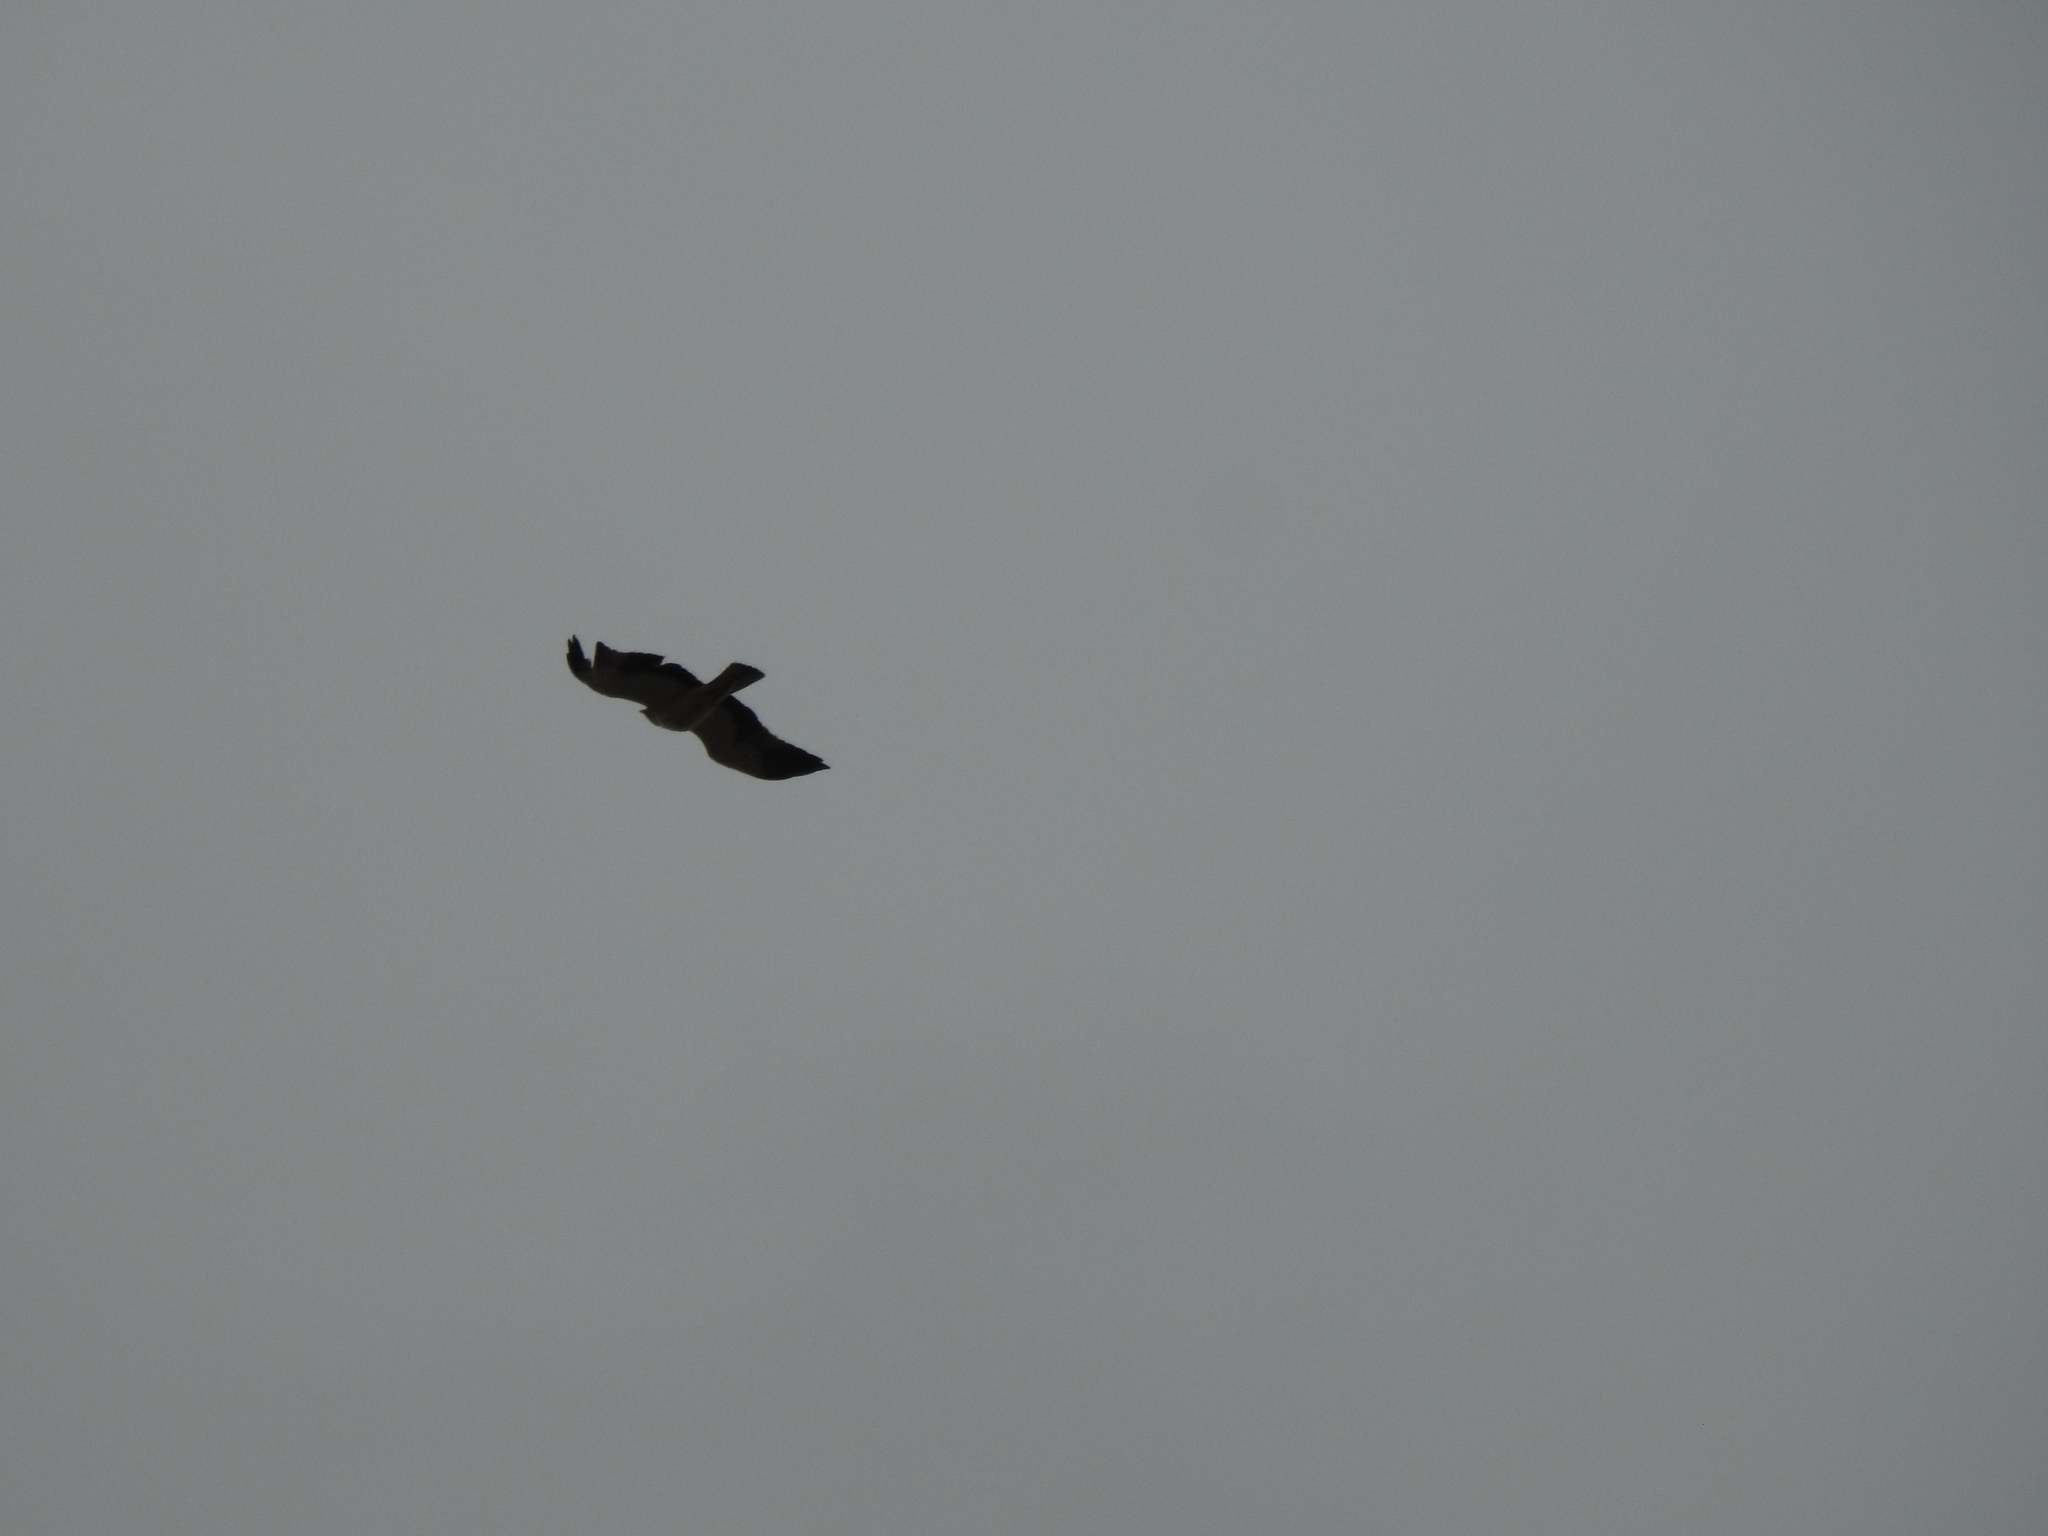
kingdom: Animalia
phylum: Chordata
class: Aves
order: Accipitriformes
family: Accipitridae
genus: Hieraaetus
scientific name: Hieraaetus pennatus
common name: Booted eagle
